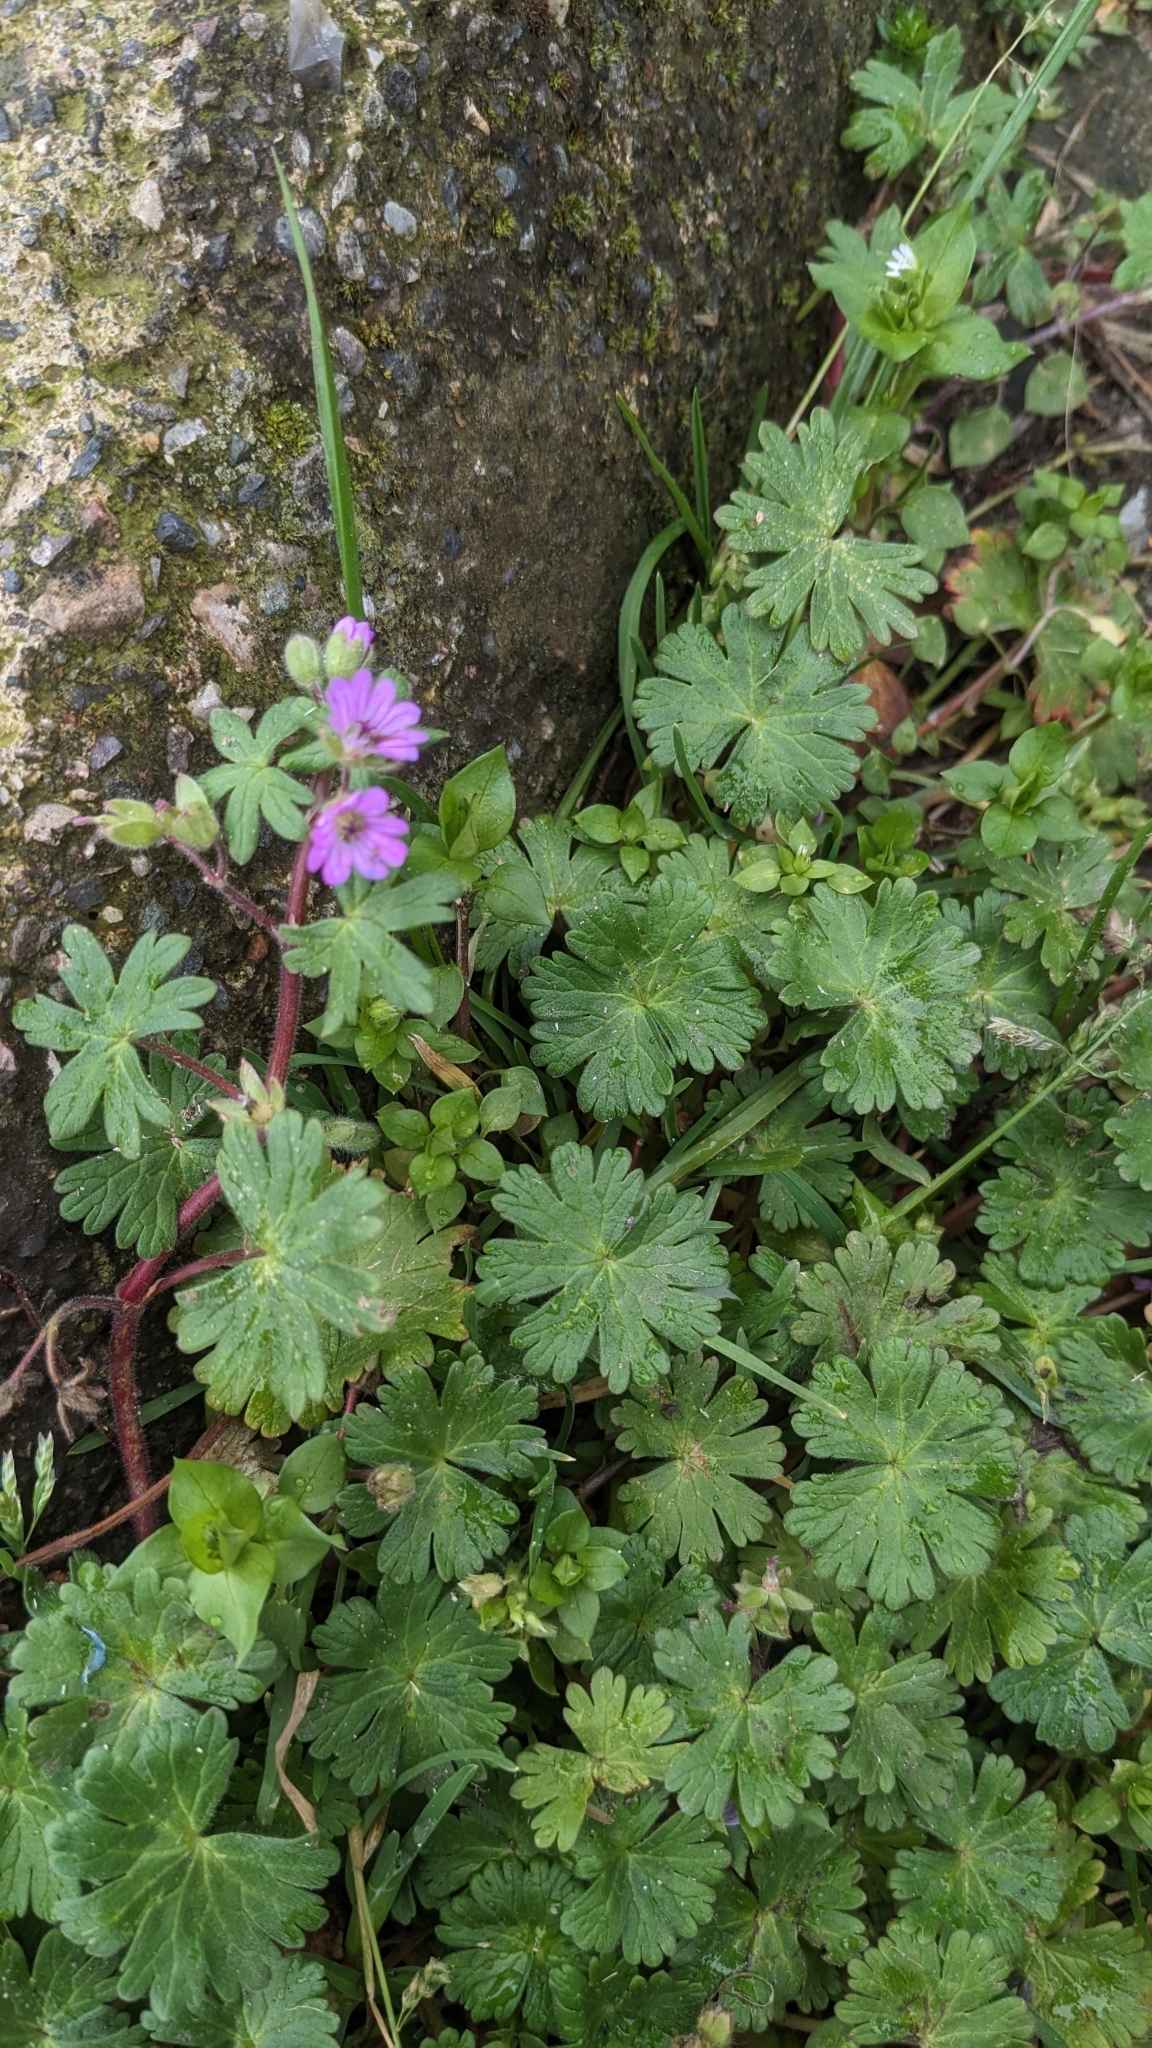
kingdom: Plantae
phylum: Tracheophyta
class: Magnoliopsida
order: Geraniales
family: Geraniaceae
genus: Geranium
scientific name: Geranium pyrenaicum
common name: Hedgerow crane's-bill
